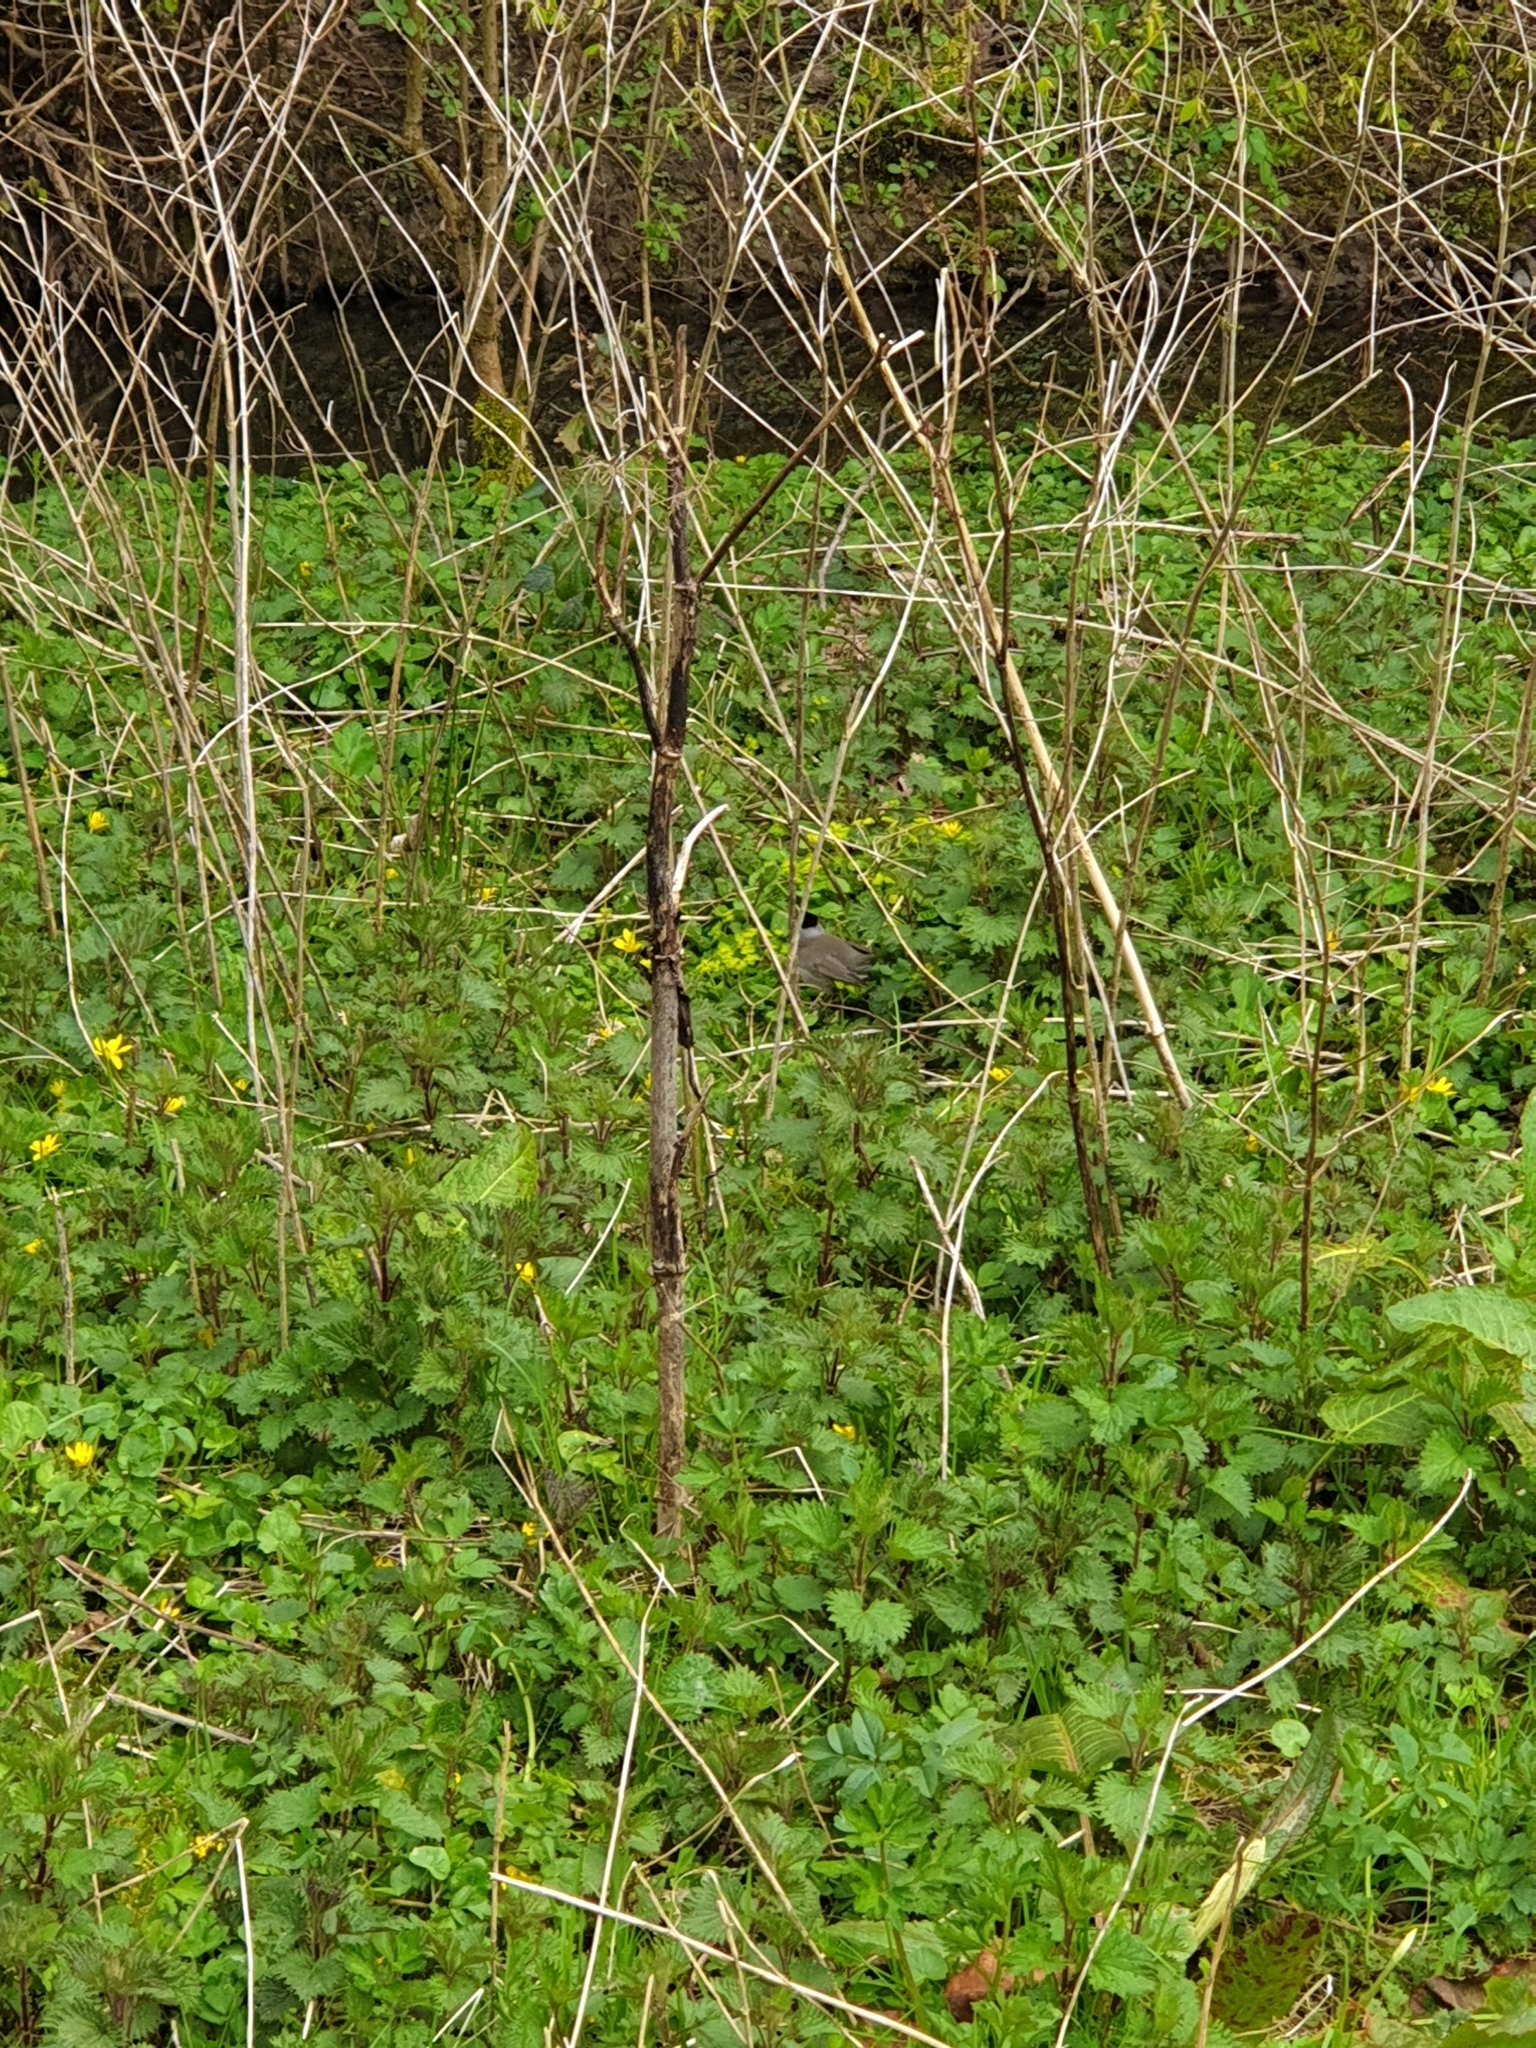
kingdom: Animalia
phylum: Chordata
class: Aves
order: Passeriformes
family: Sylviidae
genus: Sylvia
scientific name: Sylvia atricapilla
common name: Eurasian blackcap
